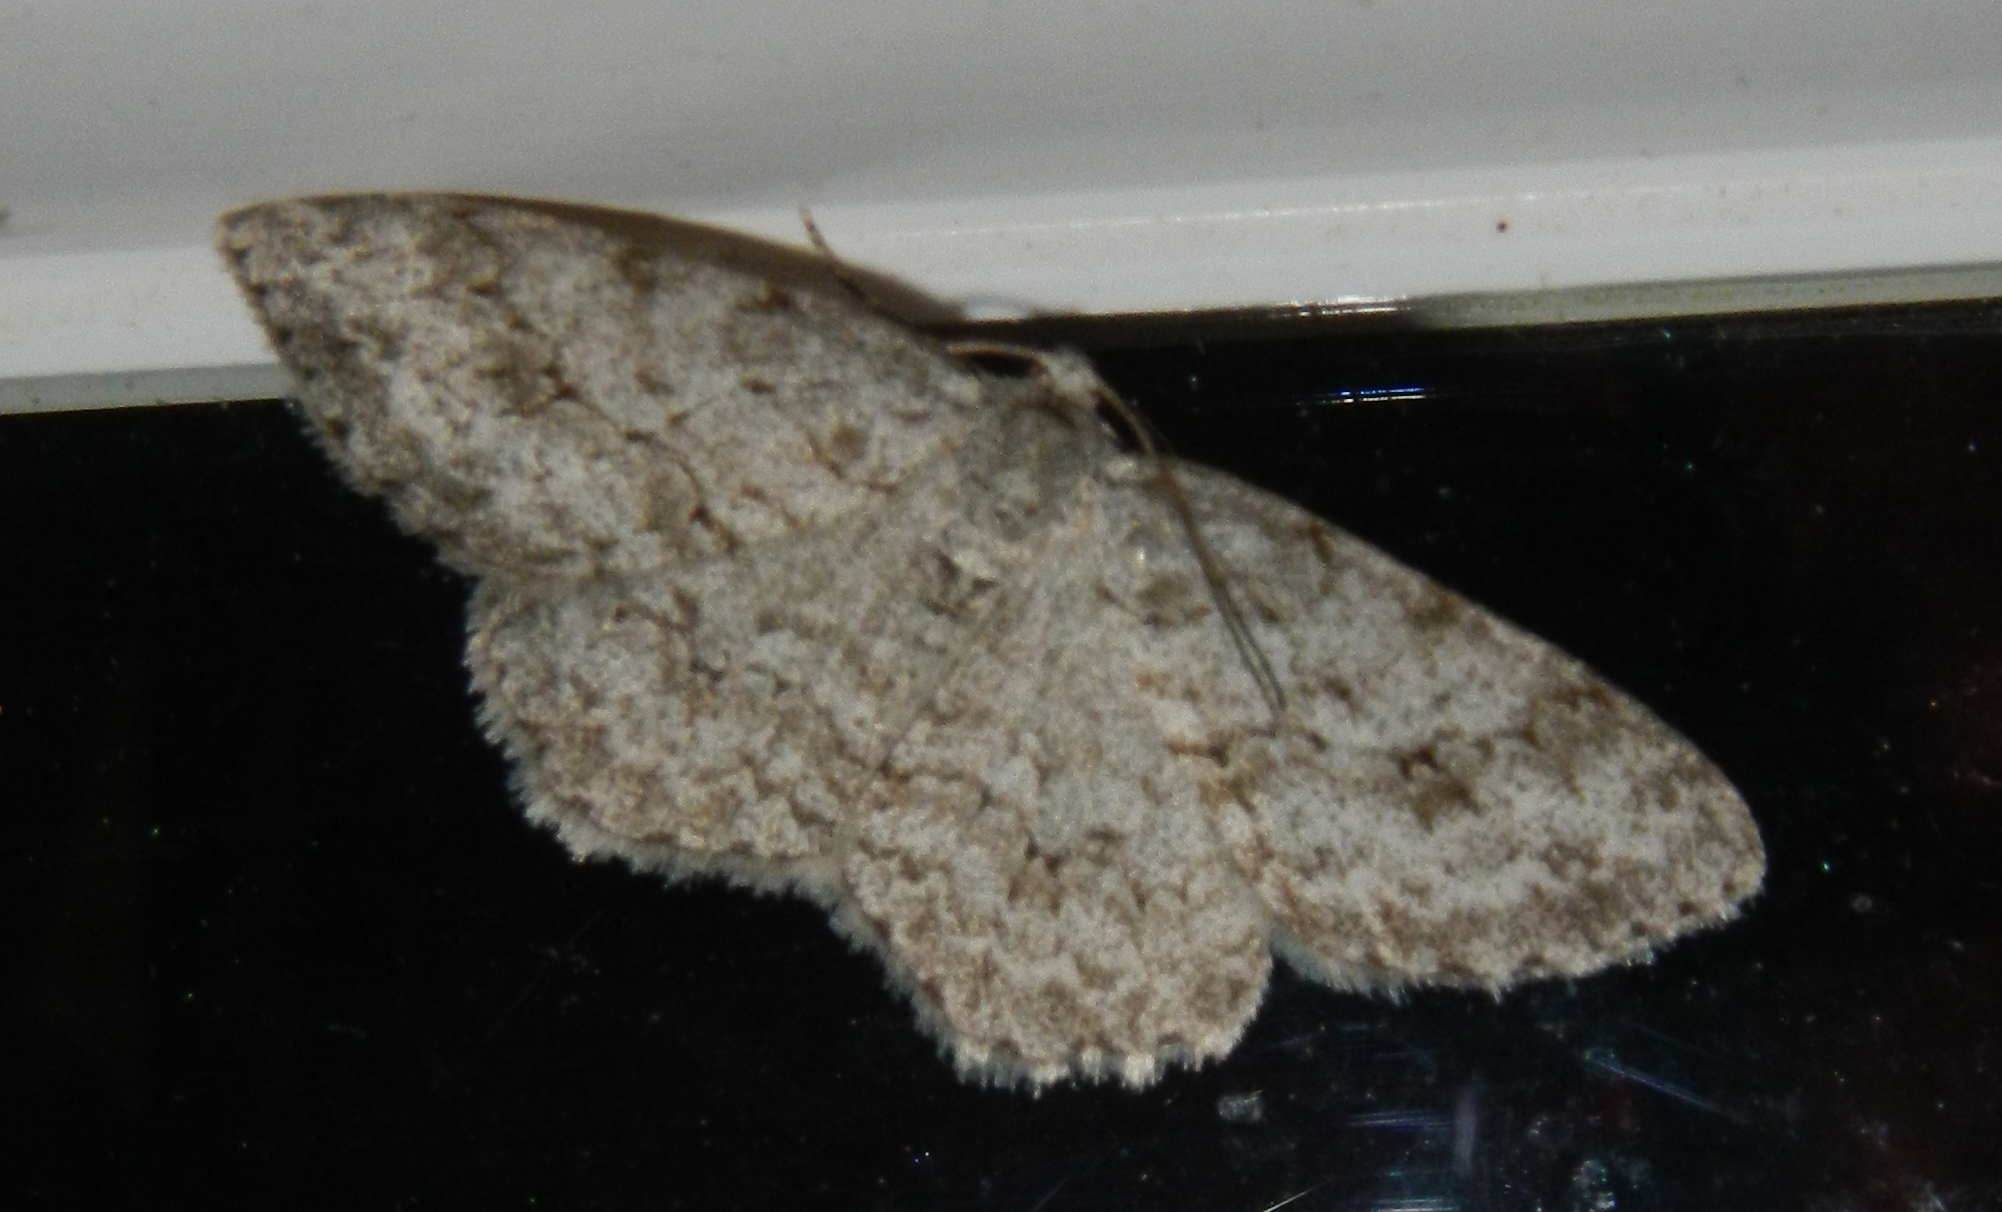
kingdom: Animalia
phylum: Arthropoda
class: Insecta
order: Lepidoptera
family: Geometridae
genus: Ectropis
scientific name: Ectropis crepuscularia
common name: Engrailed
